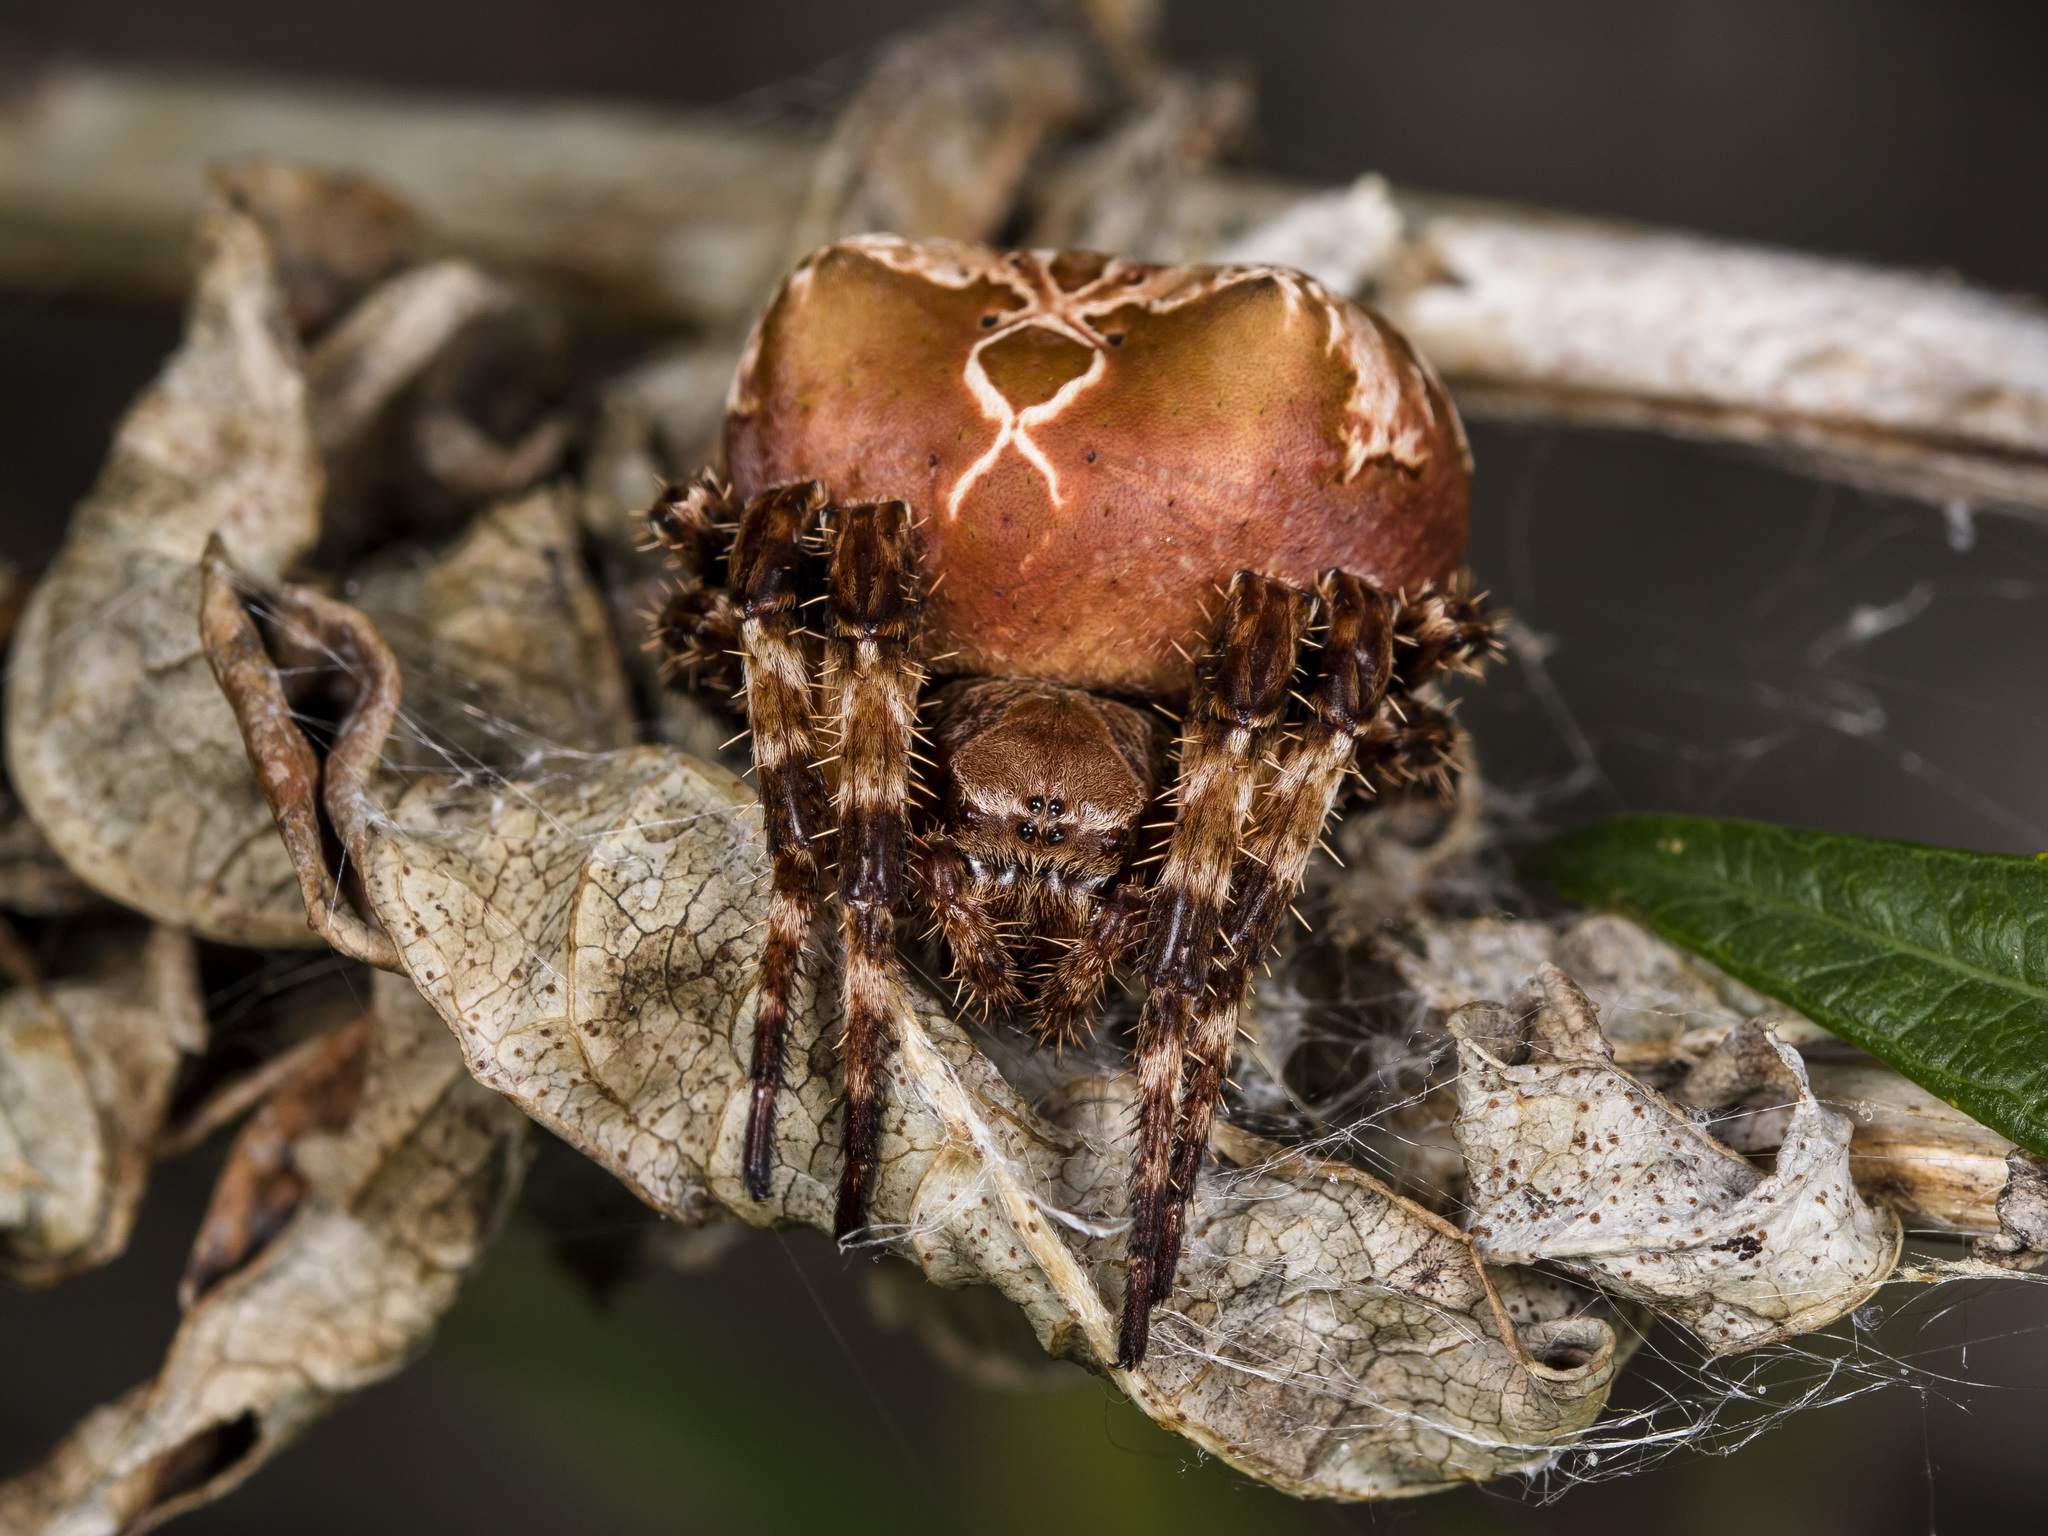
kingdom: Animalia
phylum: Arthropoda
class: Arachnida
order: Araneae
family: Araneidae
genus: Araneus
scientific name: Araneus grossus
